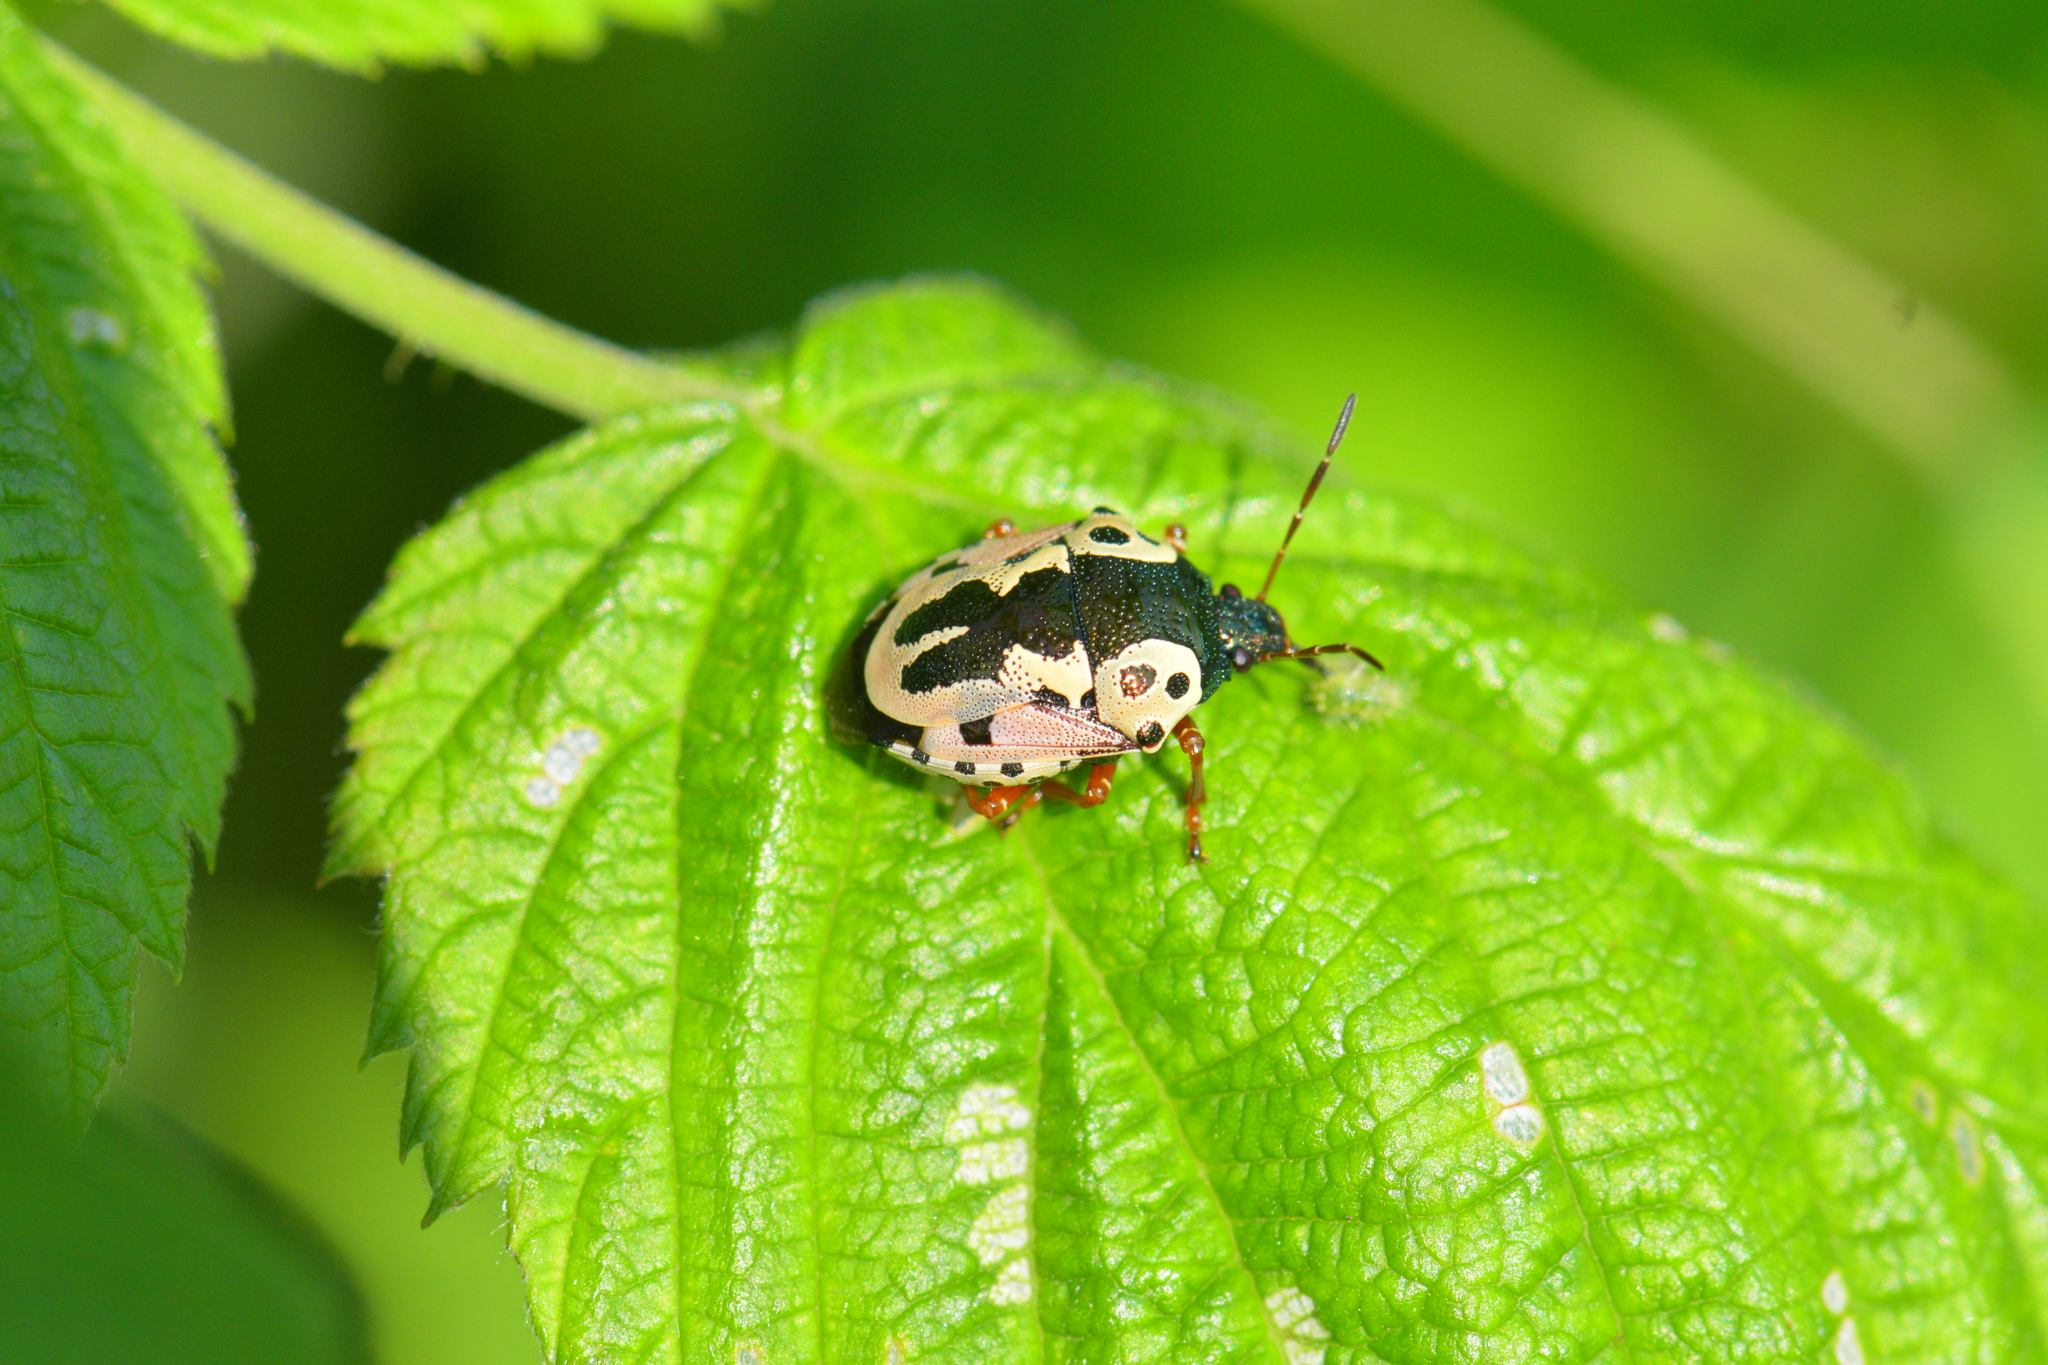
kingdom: Animalia
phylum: Arthropoda
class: Insecta
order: Hemiptera
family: Pentatomidae
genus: Stiretrus
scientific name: Stiretrus anchorago
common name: Anchor stink bug
